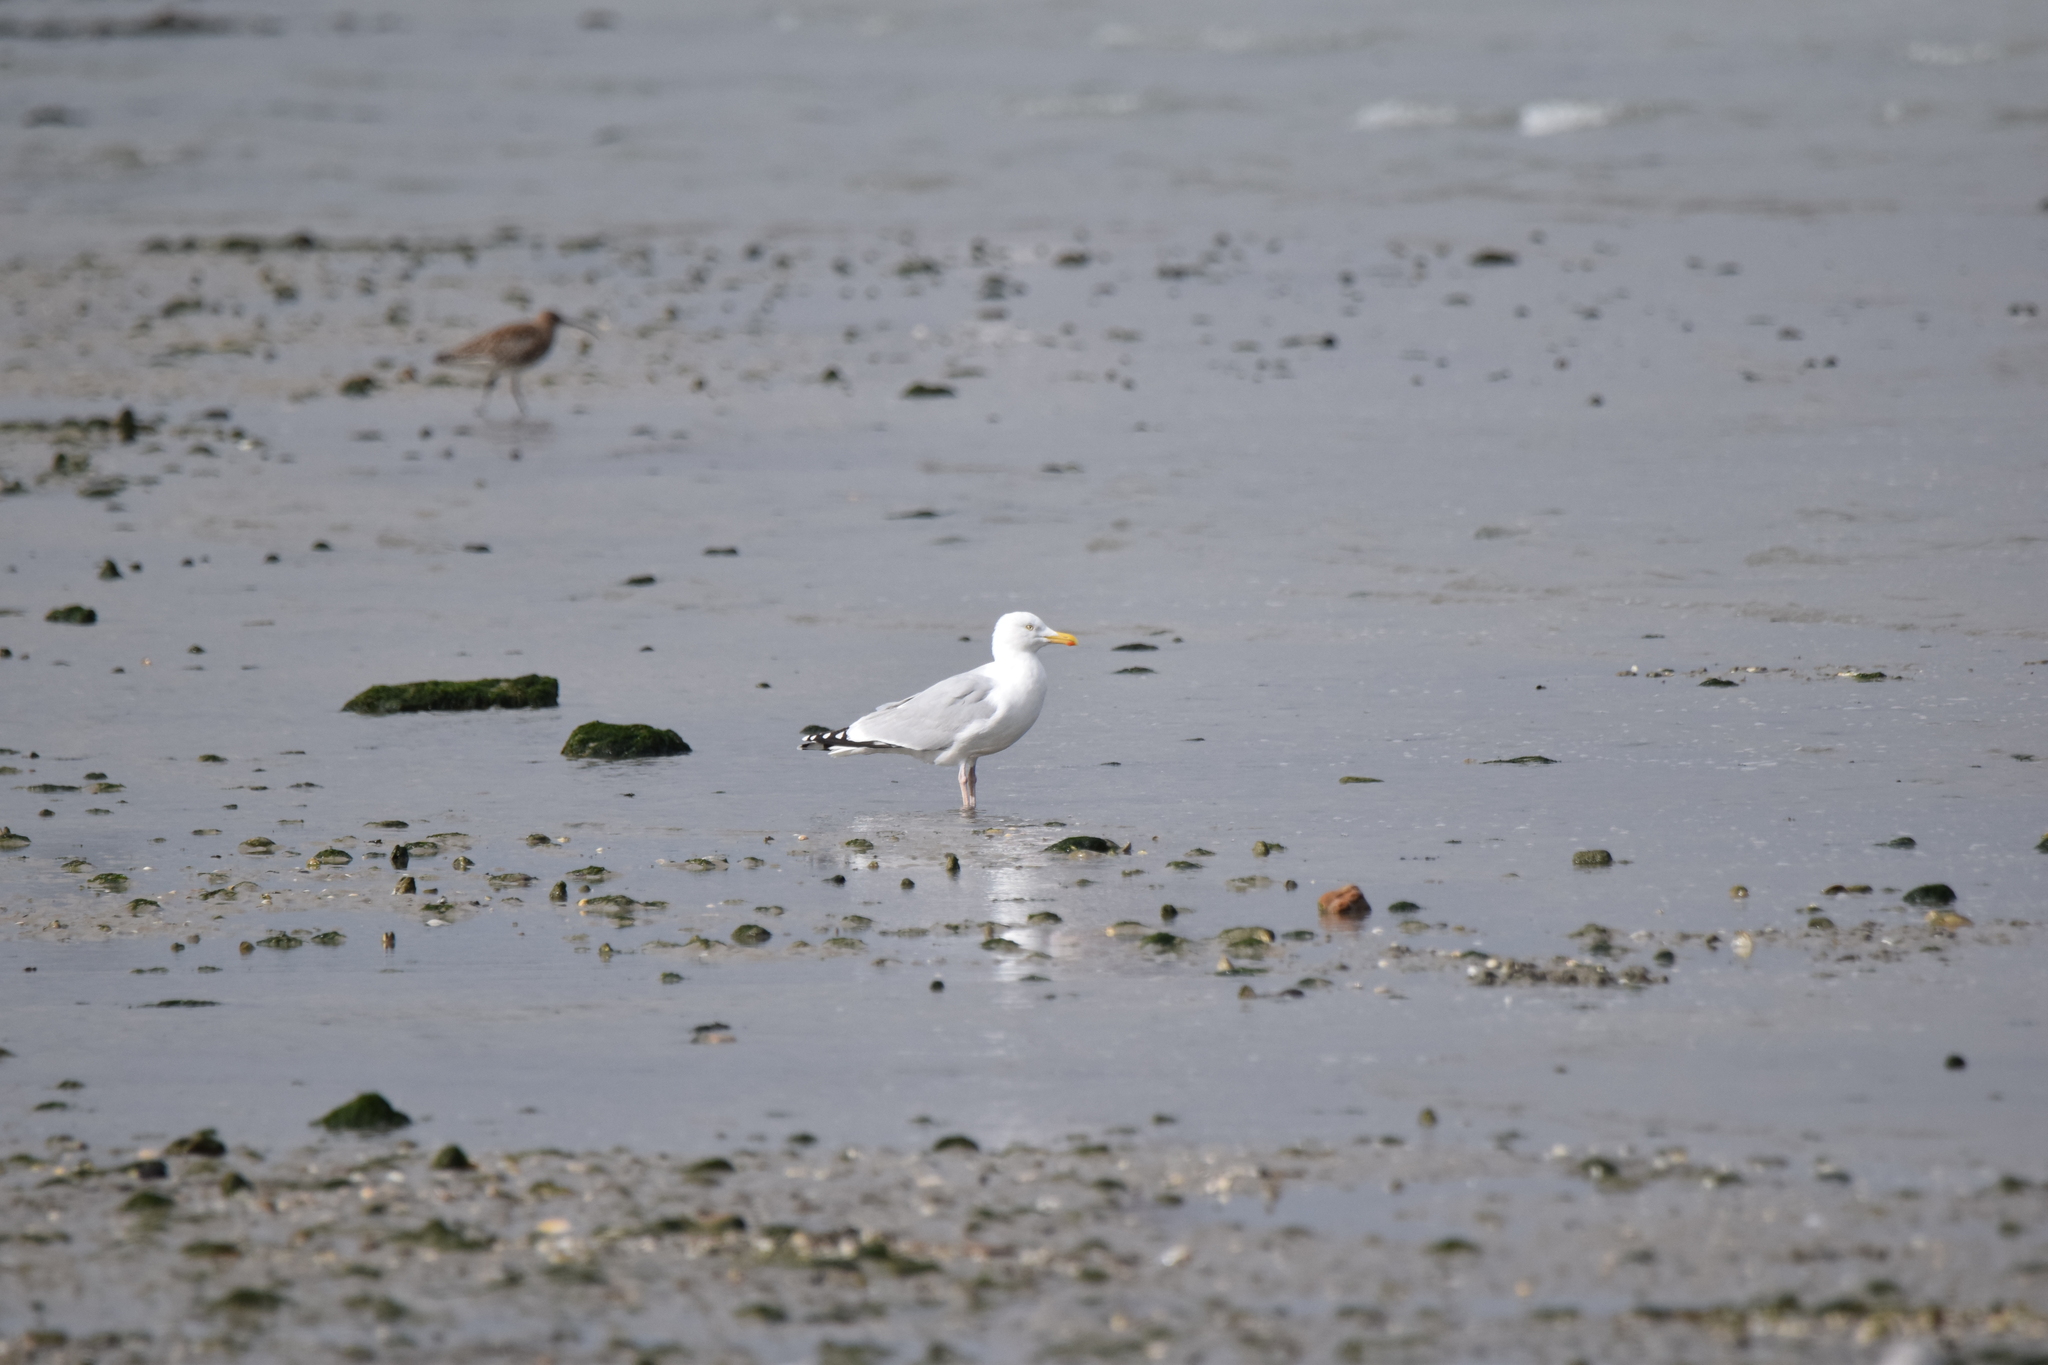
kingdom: Animalia
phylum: Chordata
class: Aves
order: Charadriiformes
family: Laridae
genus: Larus
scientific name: Larus argentatus
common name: Herring gull
